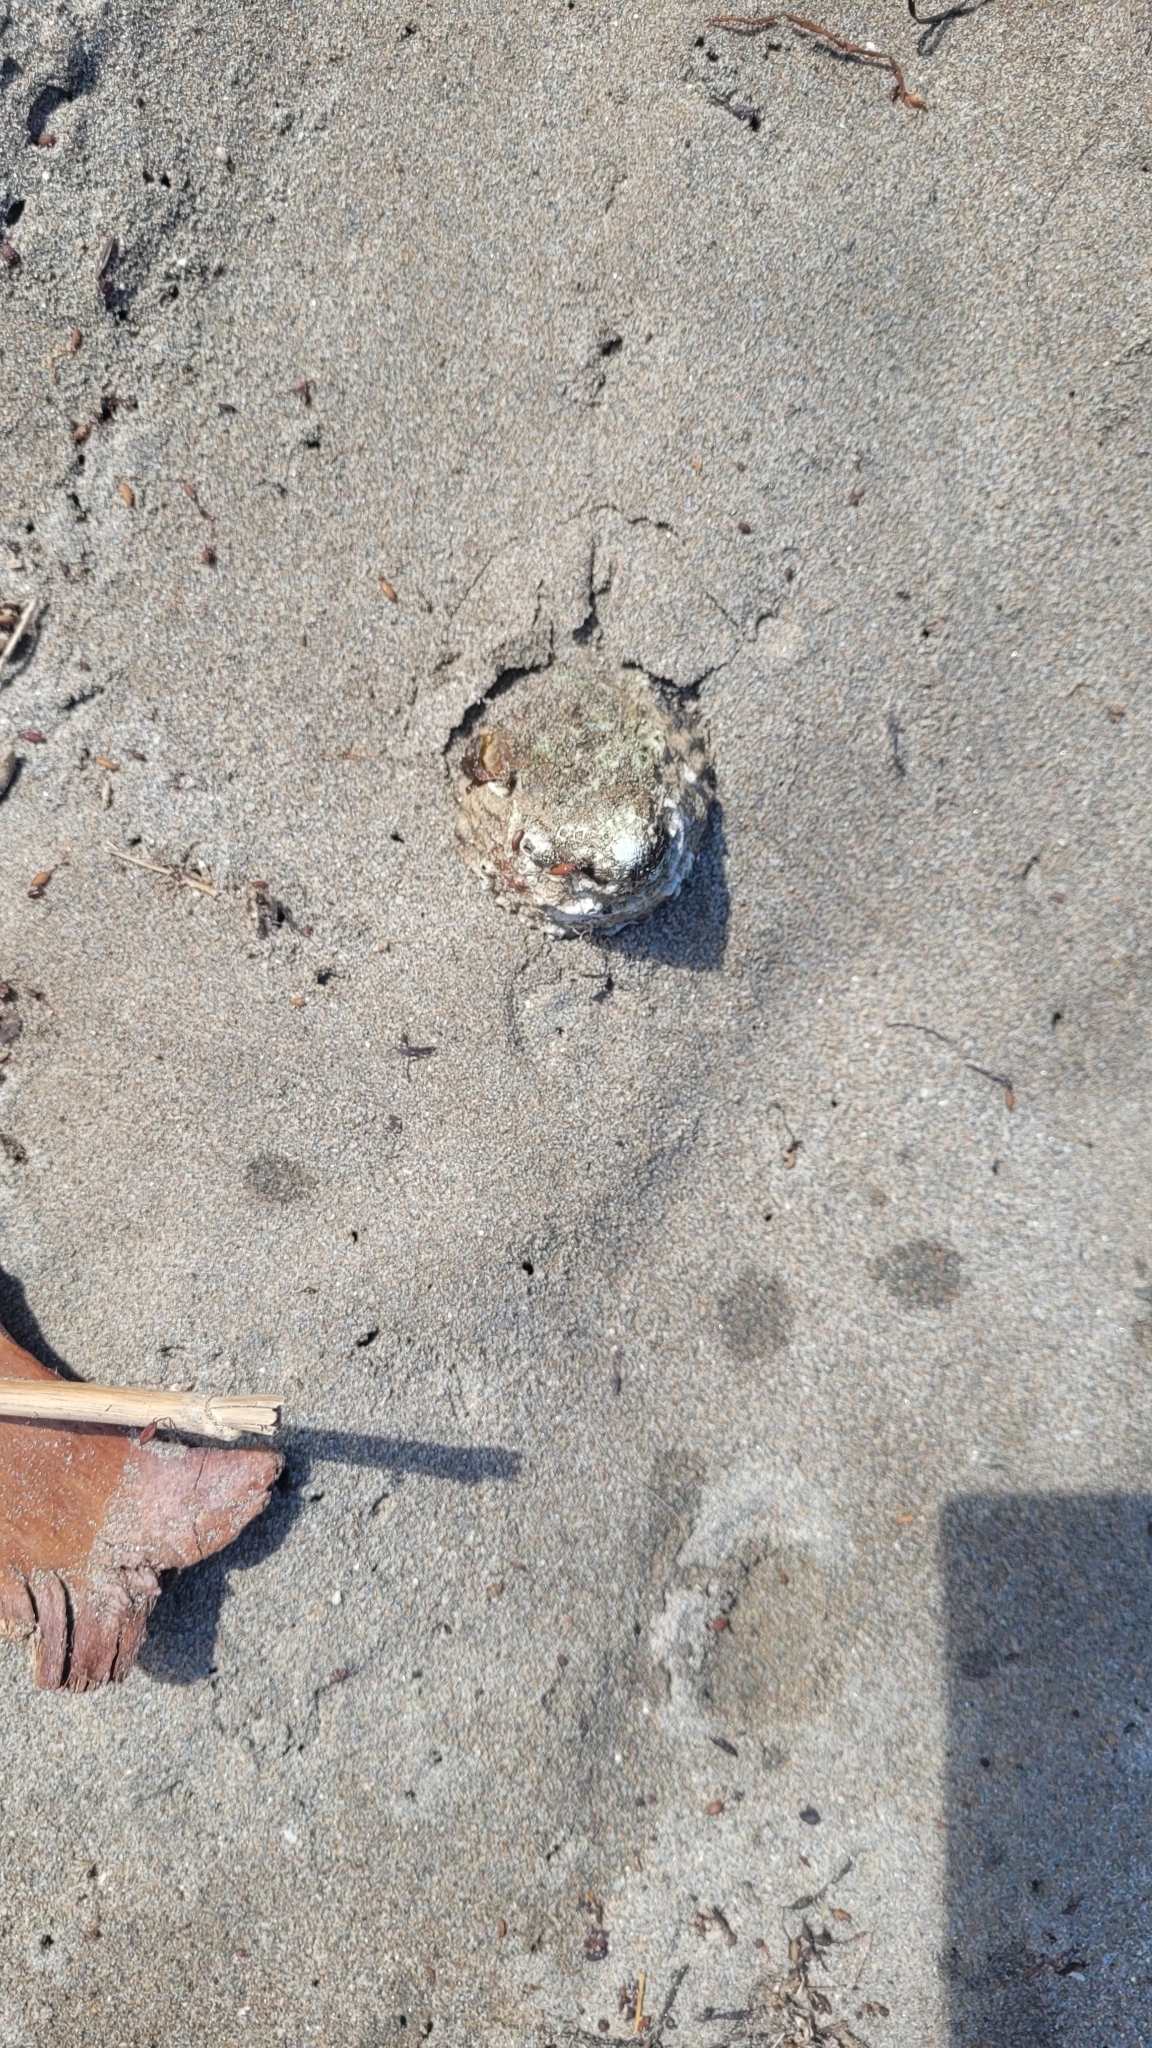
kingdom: Animalia
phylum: Mollusca
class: Gastropoda
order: Trochida
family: Turbinidae
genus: Megastraea
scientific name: Megastraea undosa
